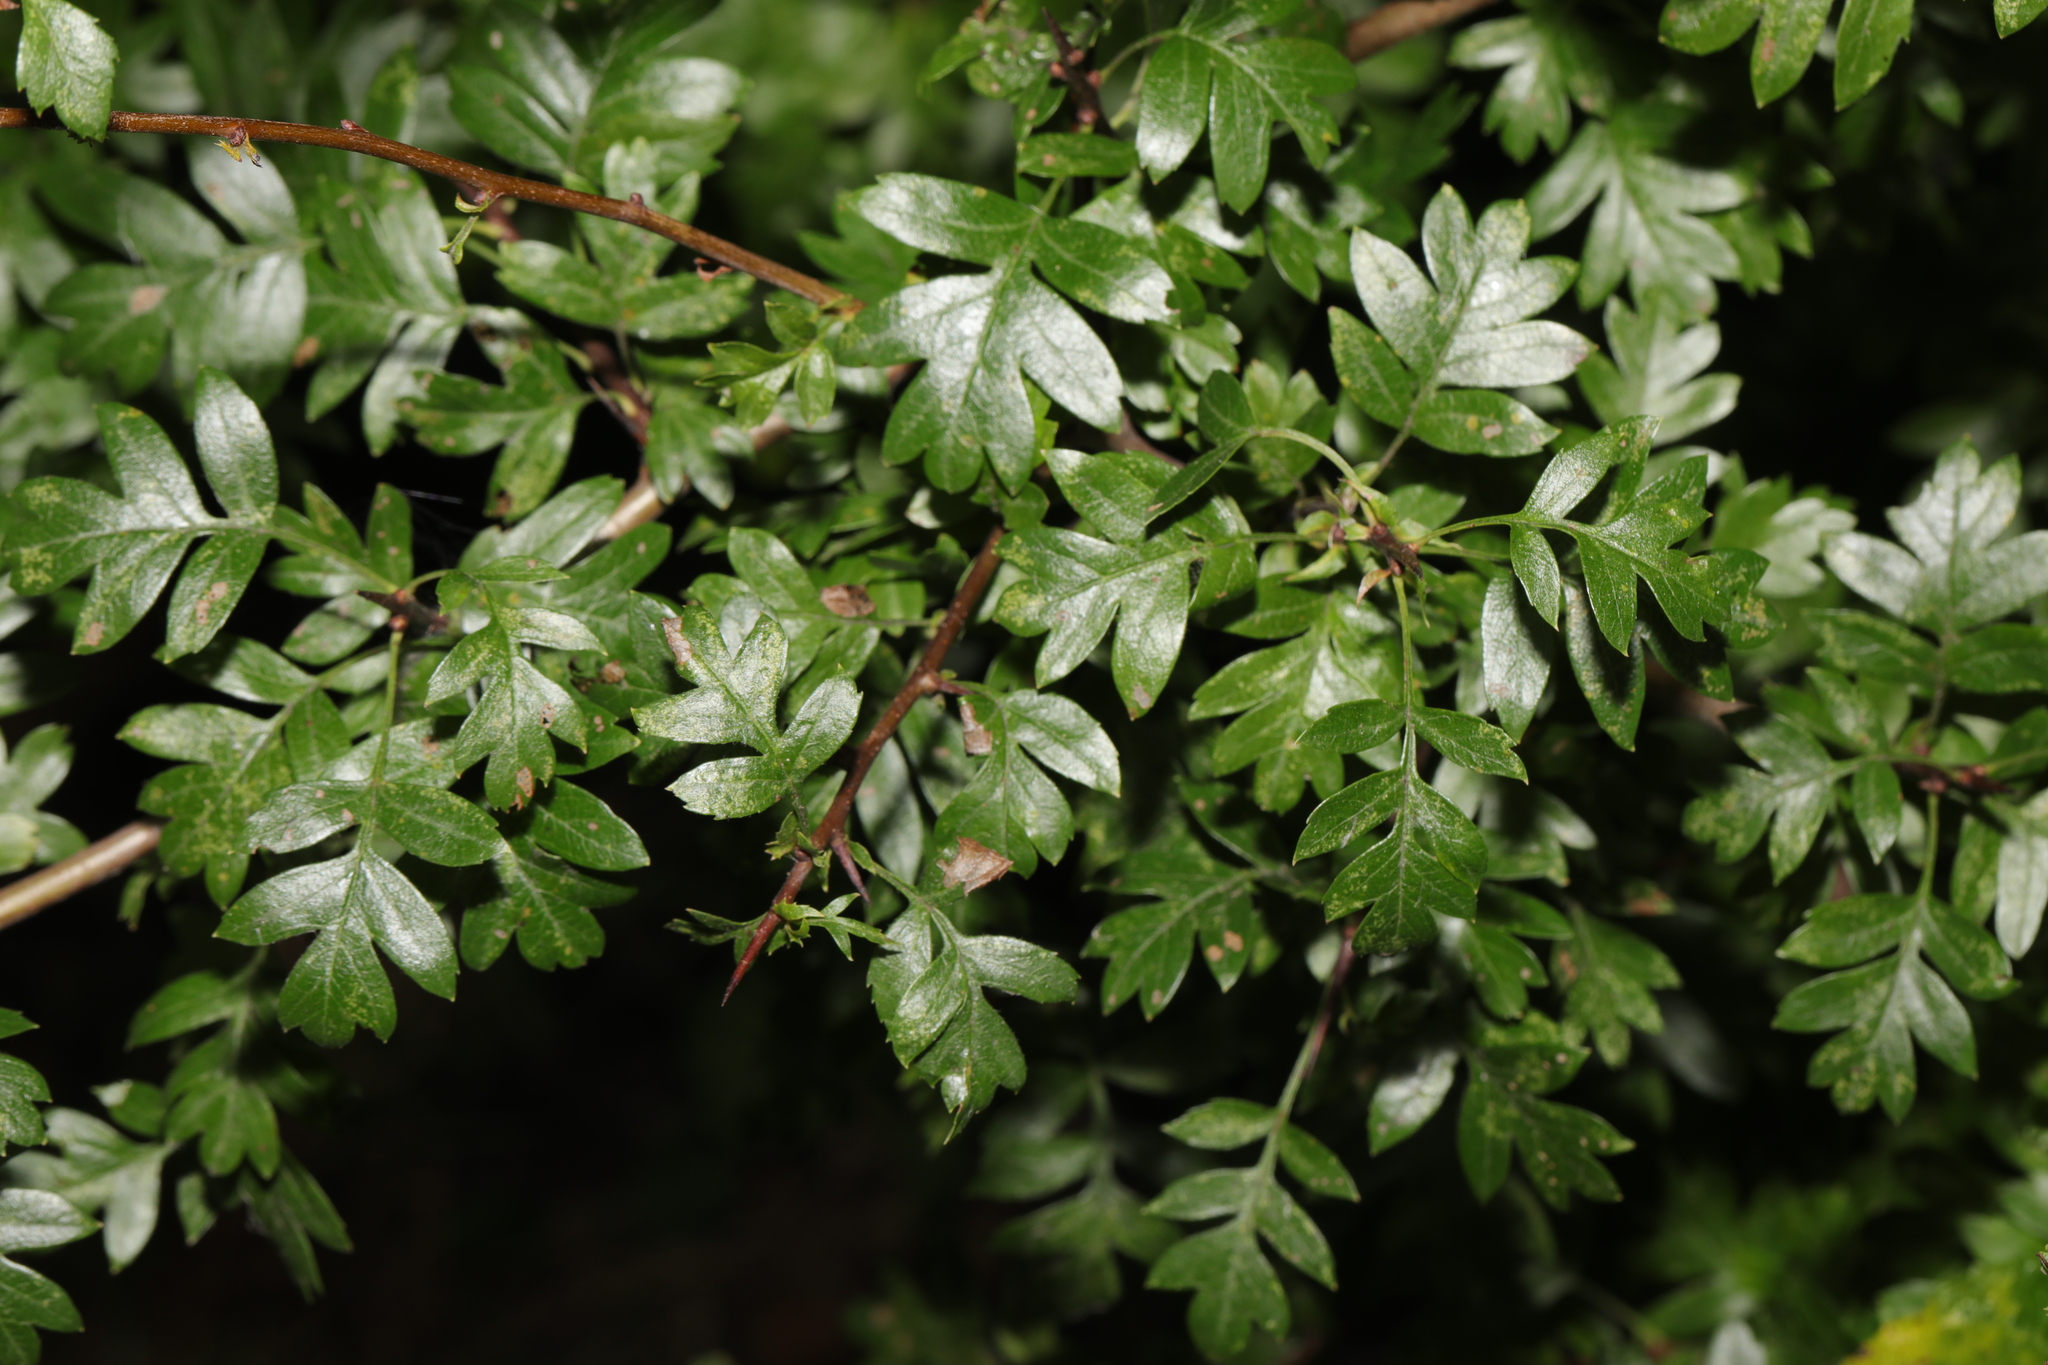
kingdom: Plantae
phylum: Tracheophyta
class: Magnoliopsida
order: Rosales
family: Rosaceae
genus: Crataegus
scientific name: Crataegus monogyna
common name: Hawthorn
